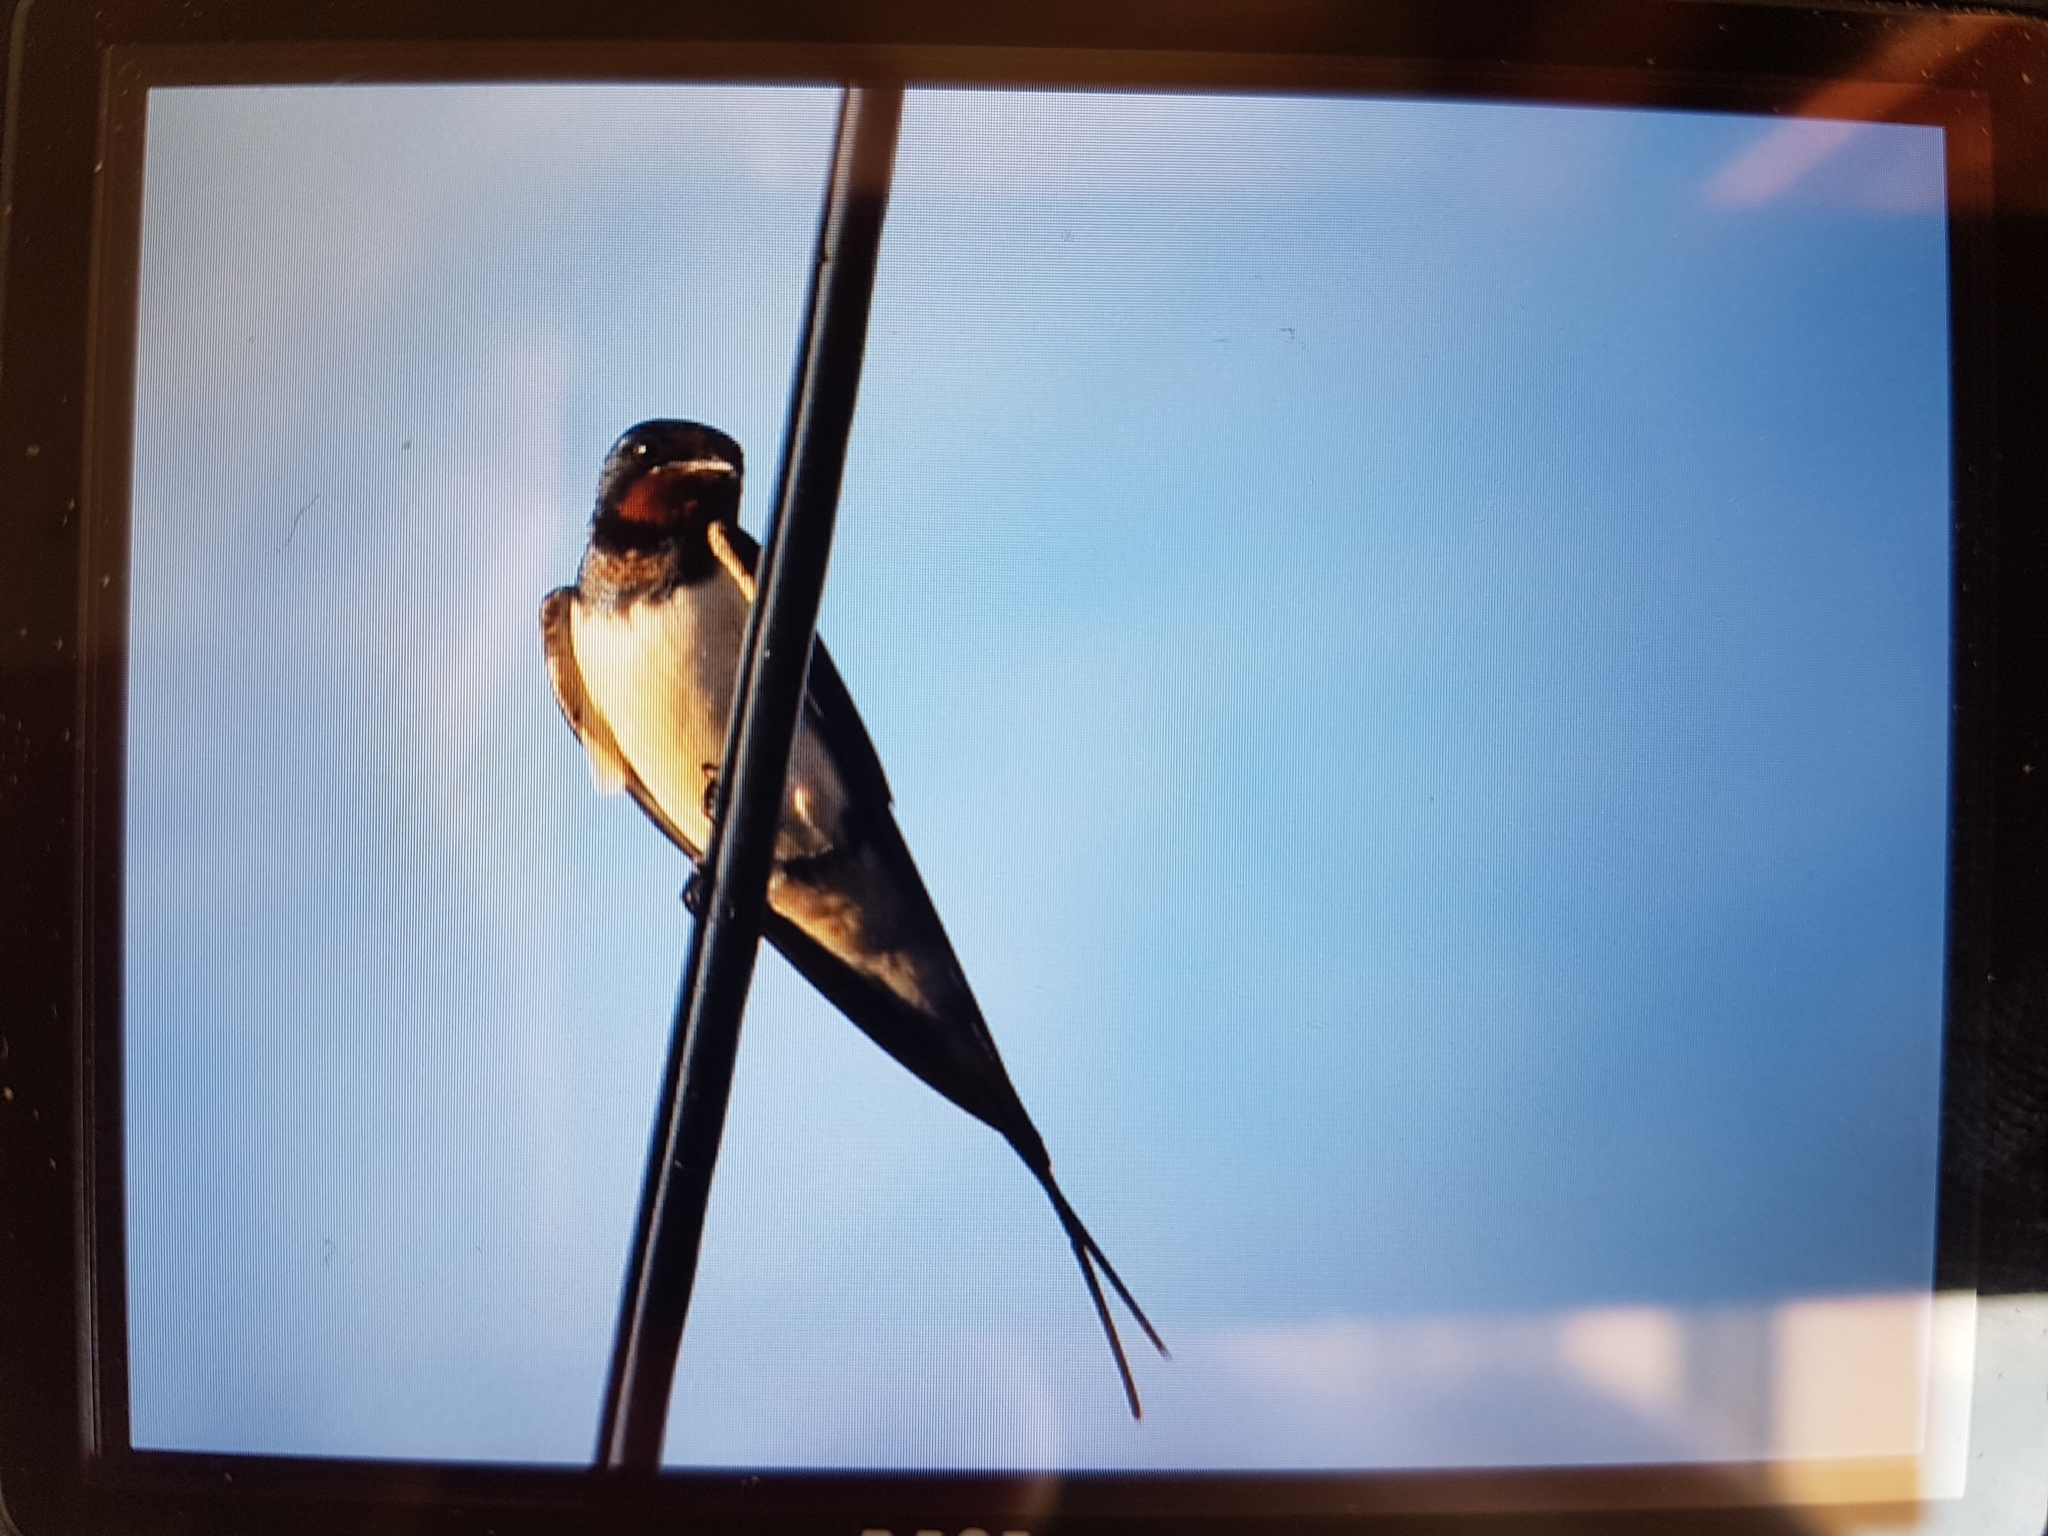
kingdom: Animalia
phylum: Chordata
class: Aves
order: Passeriformes
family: Hirundinidae
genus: Hirundo
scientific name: Hirundo rustica
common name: Barn swallow
